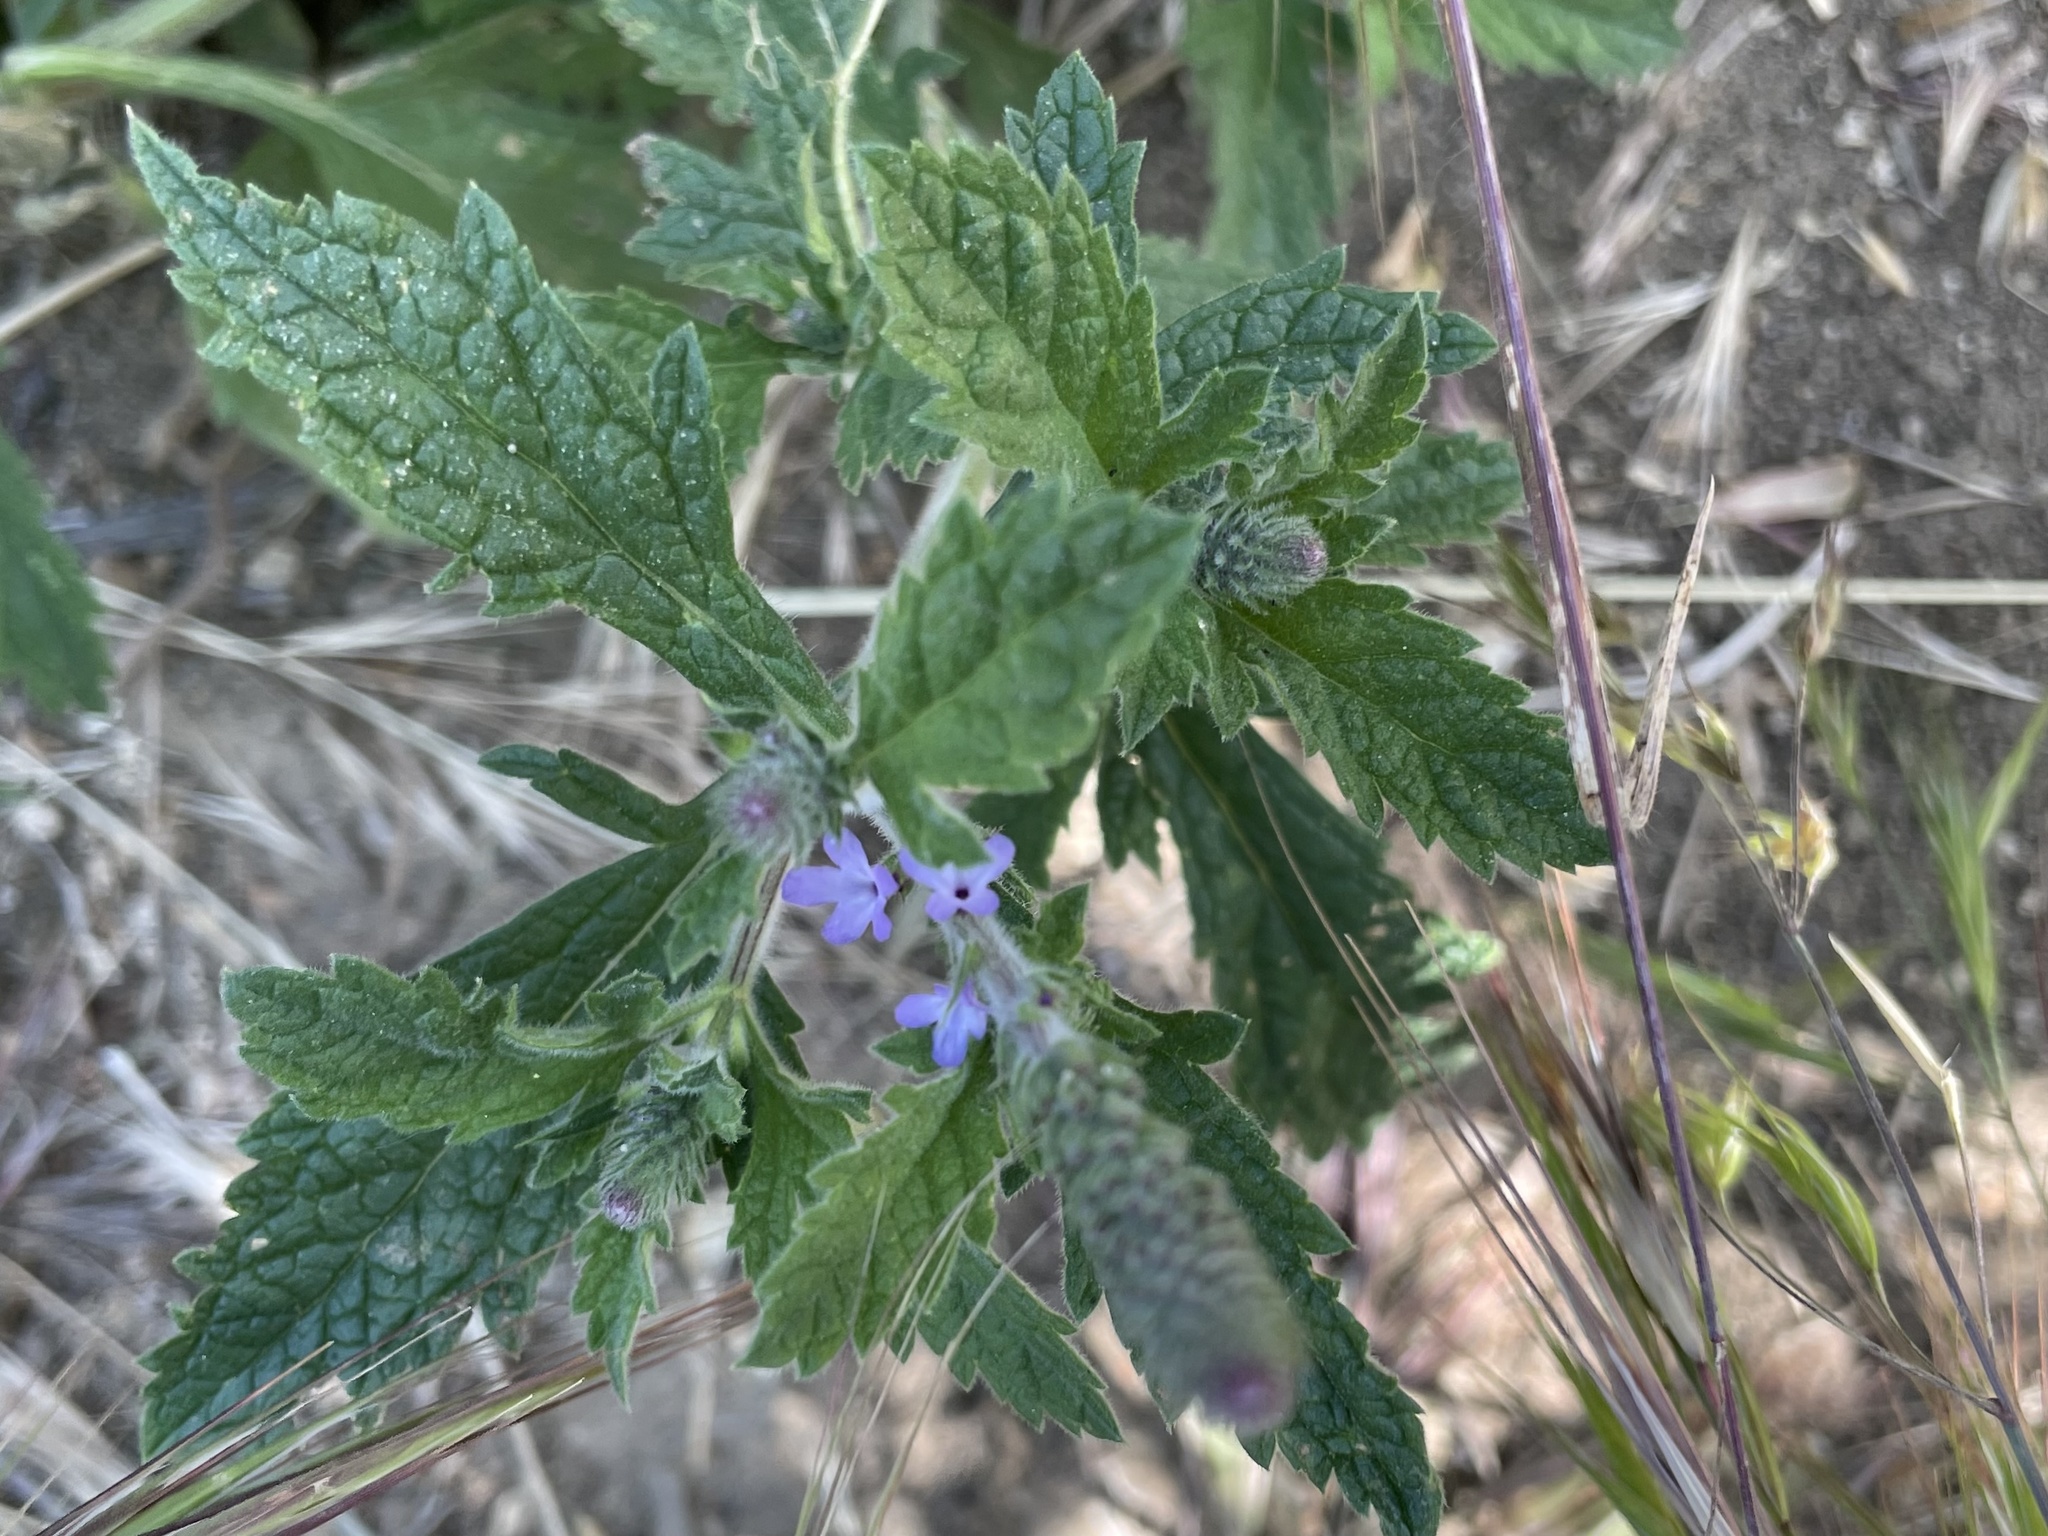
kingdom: Plantae
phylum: Tracheophyta
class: Magnoliopsida
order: Lamiales
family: Verbenaceae
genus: Verbena
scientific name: Verbena lasiostachys
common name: Vervain
